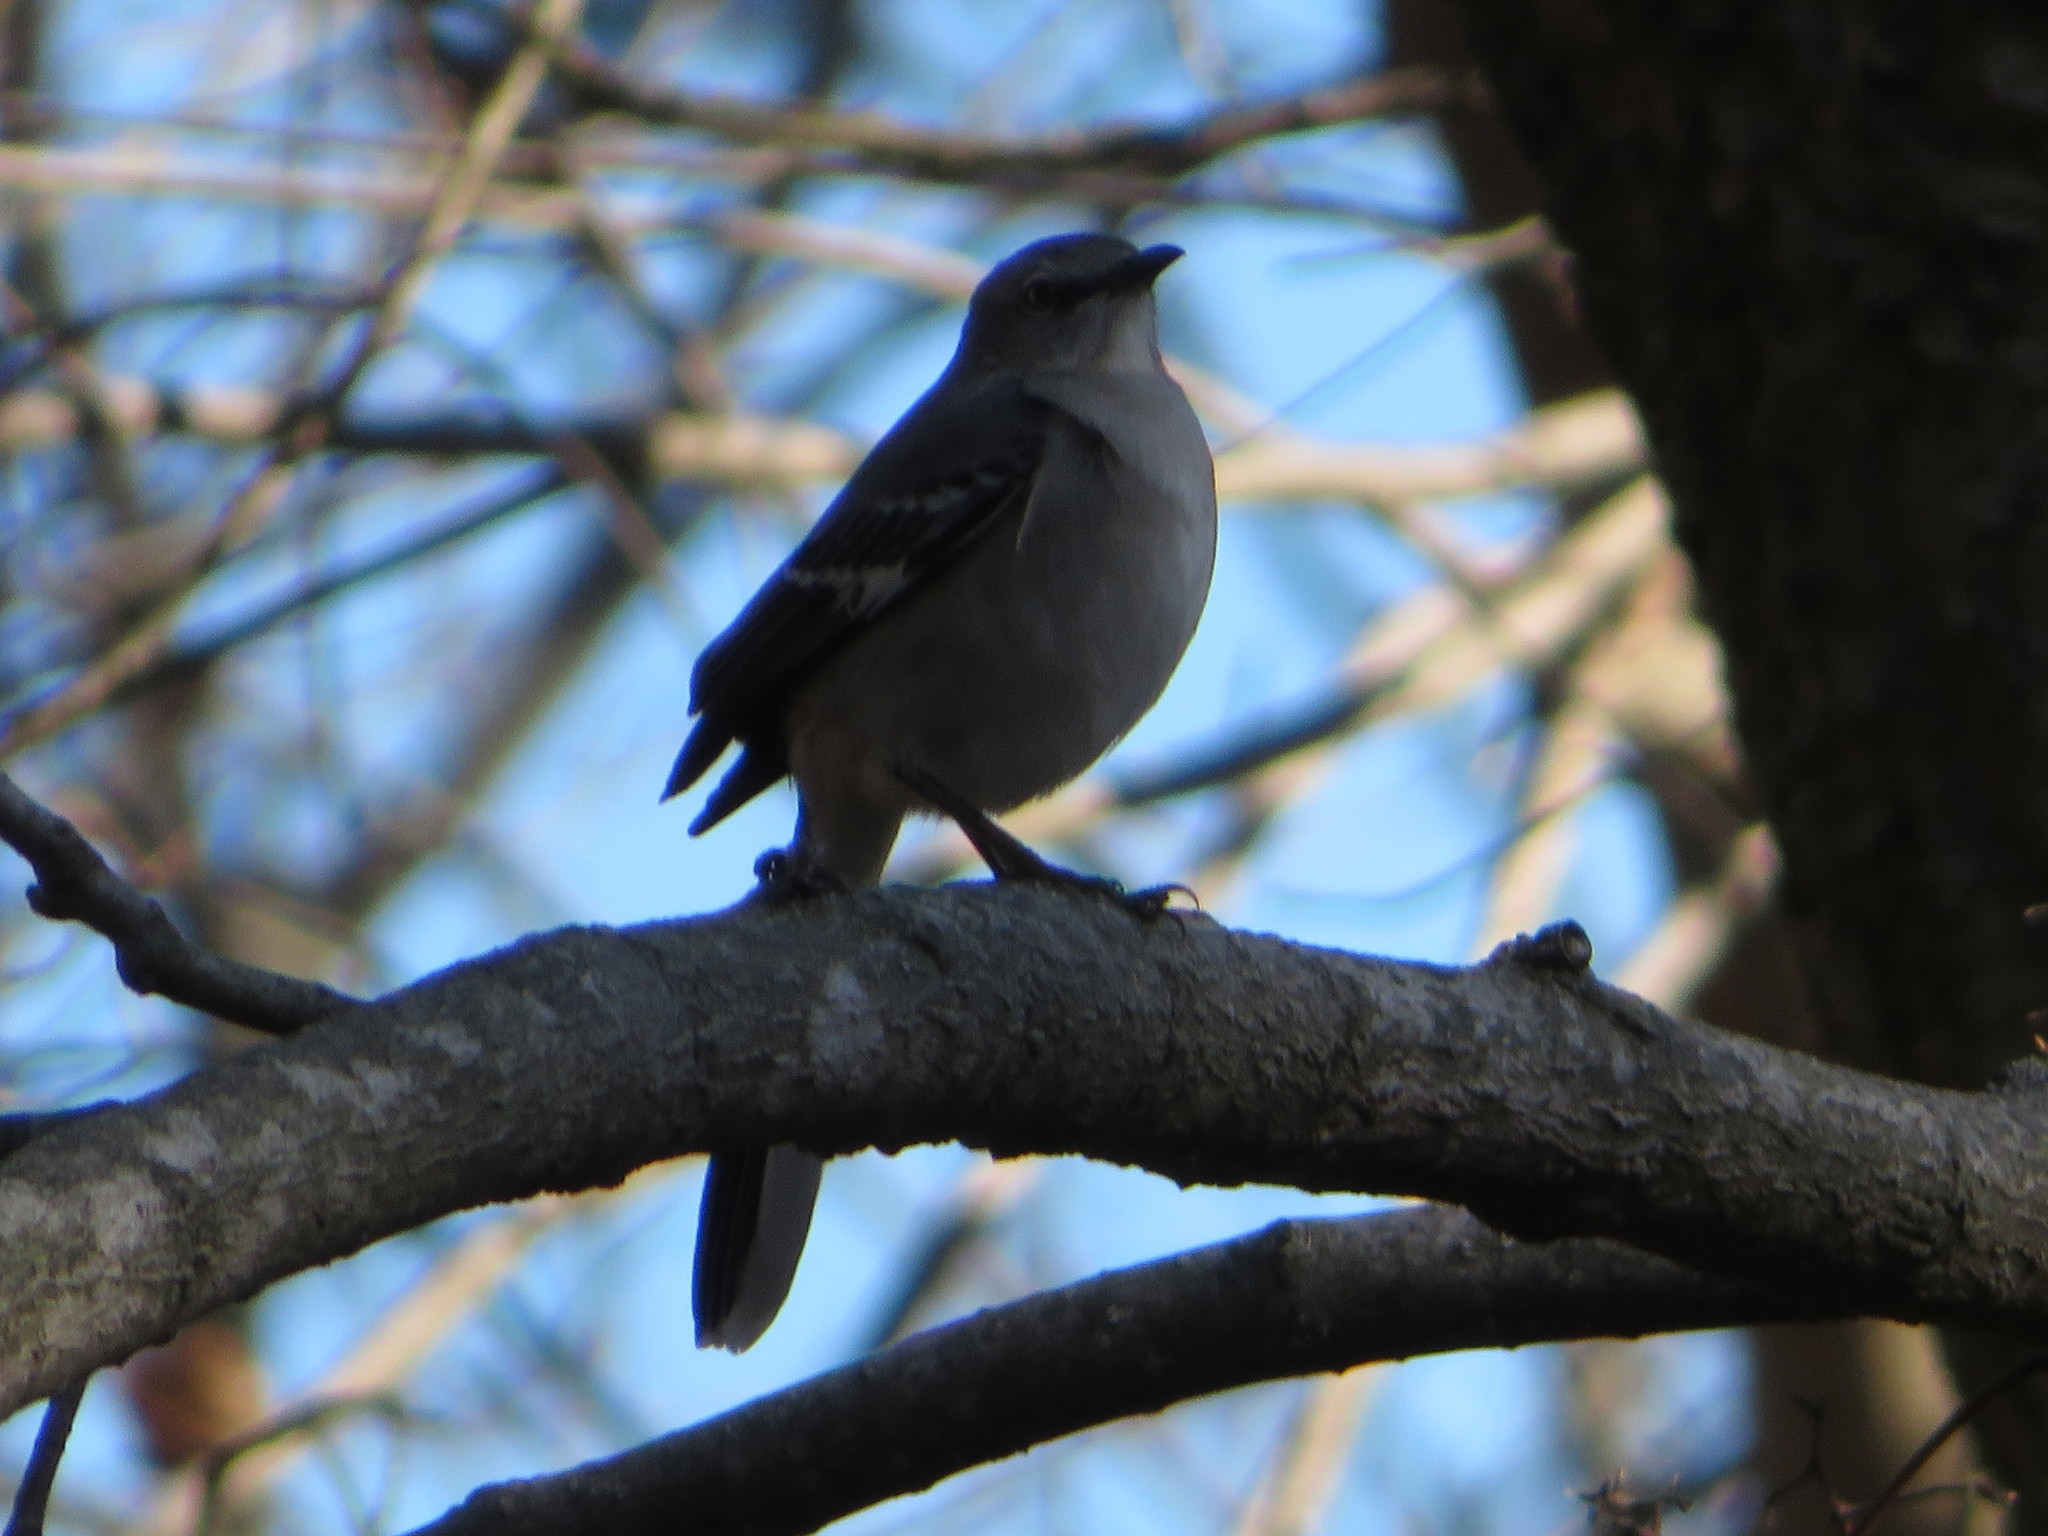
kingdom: Animalia
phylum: Chordata
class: Aves
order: Passeriformes
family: Mimidae
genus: Mimus
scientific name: Mimus polyglottos
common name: Northern mockingbird
